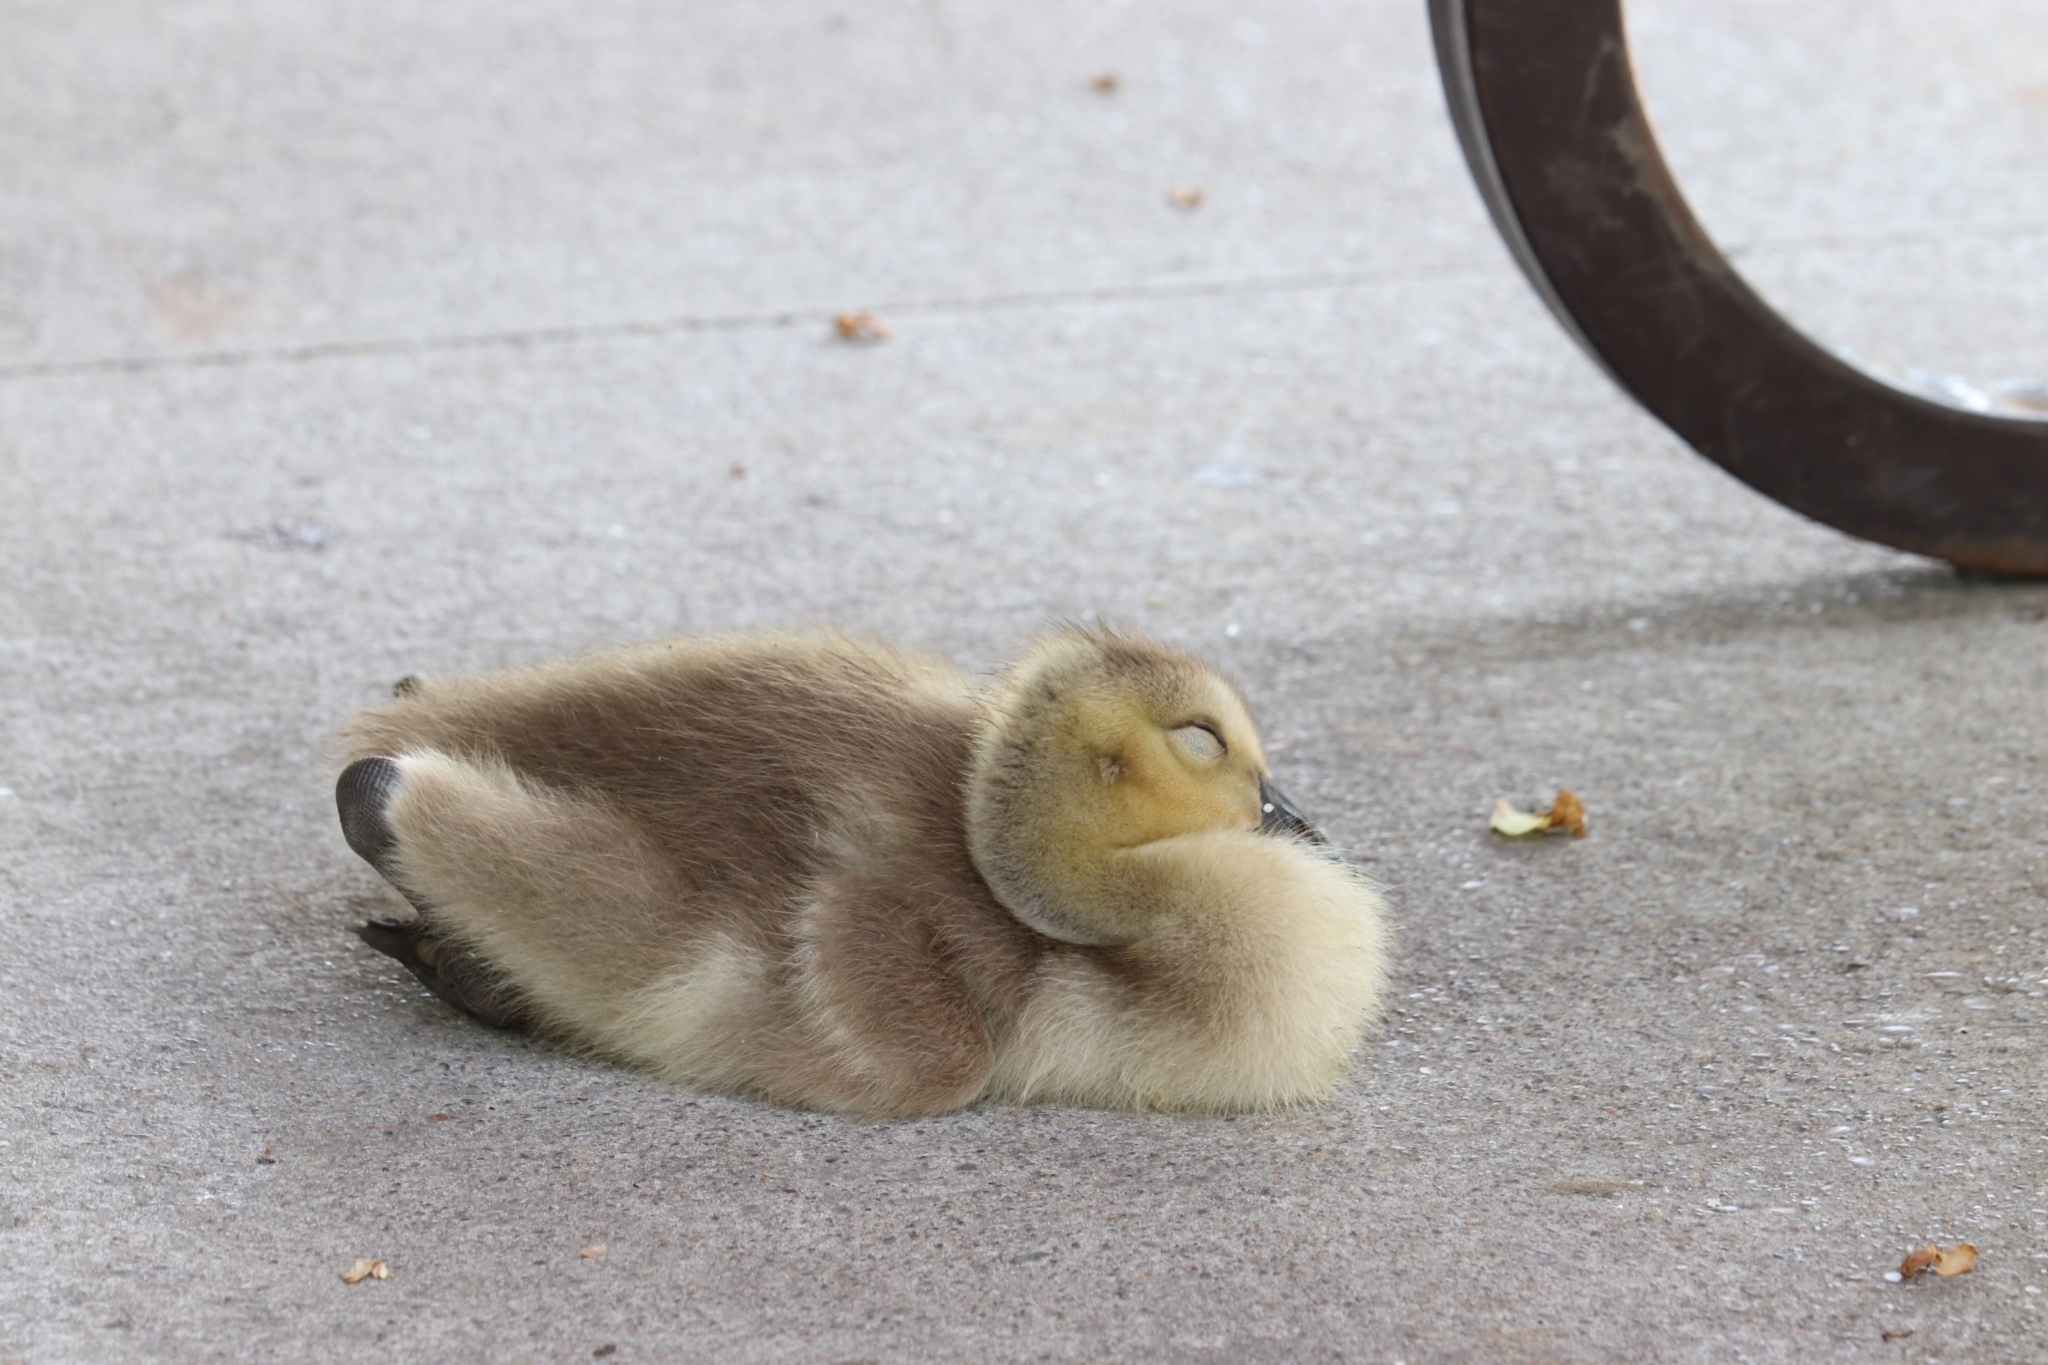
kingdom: Animalia
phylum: Chordata
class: Aves
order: Anseriformes
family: Anatidae
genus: Branta
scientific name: Branta canadensis
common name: Canada goose
